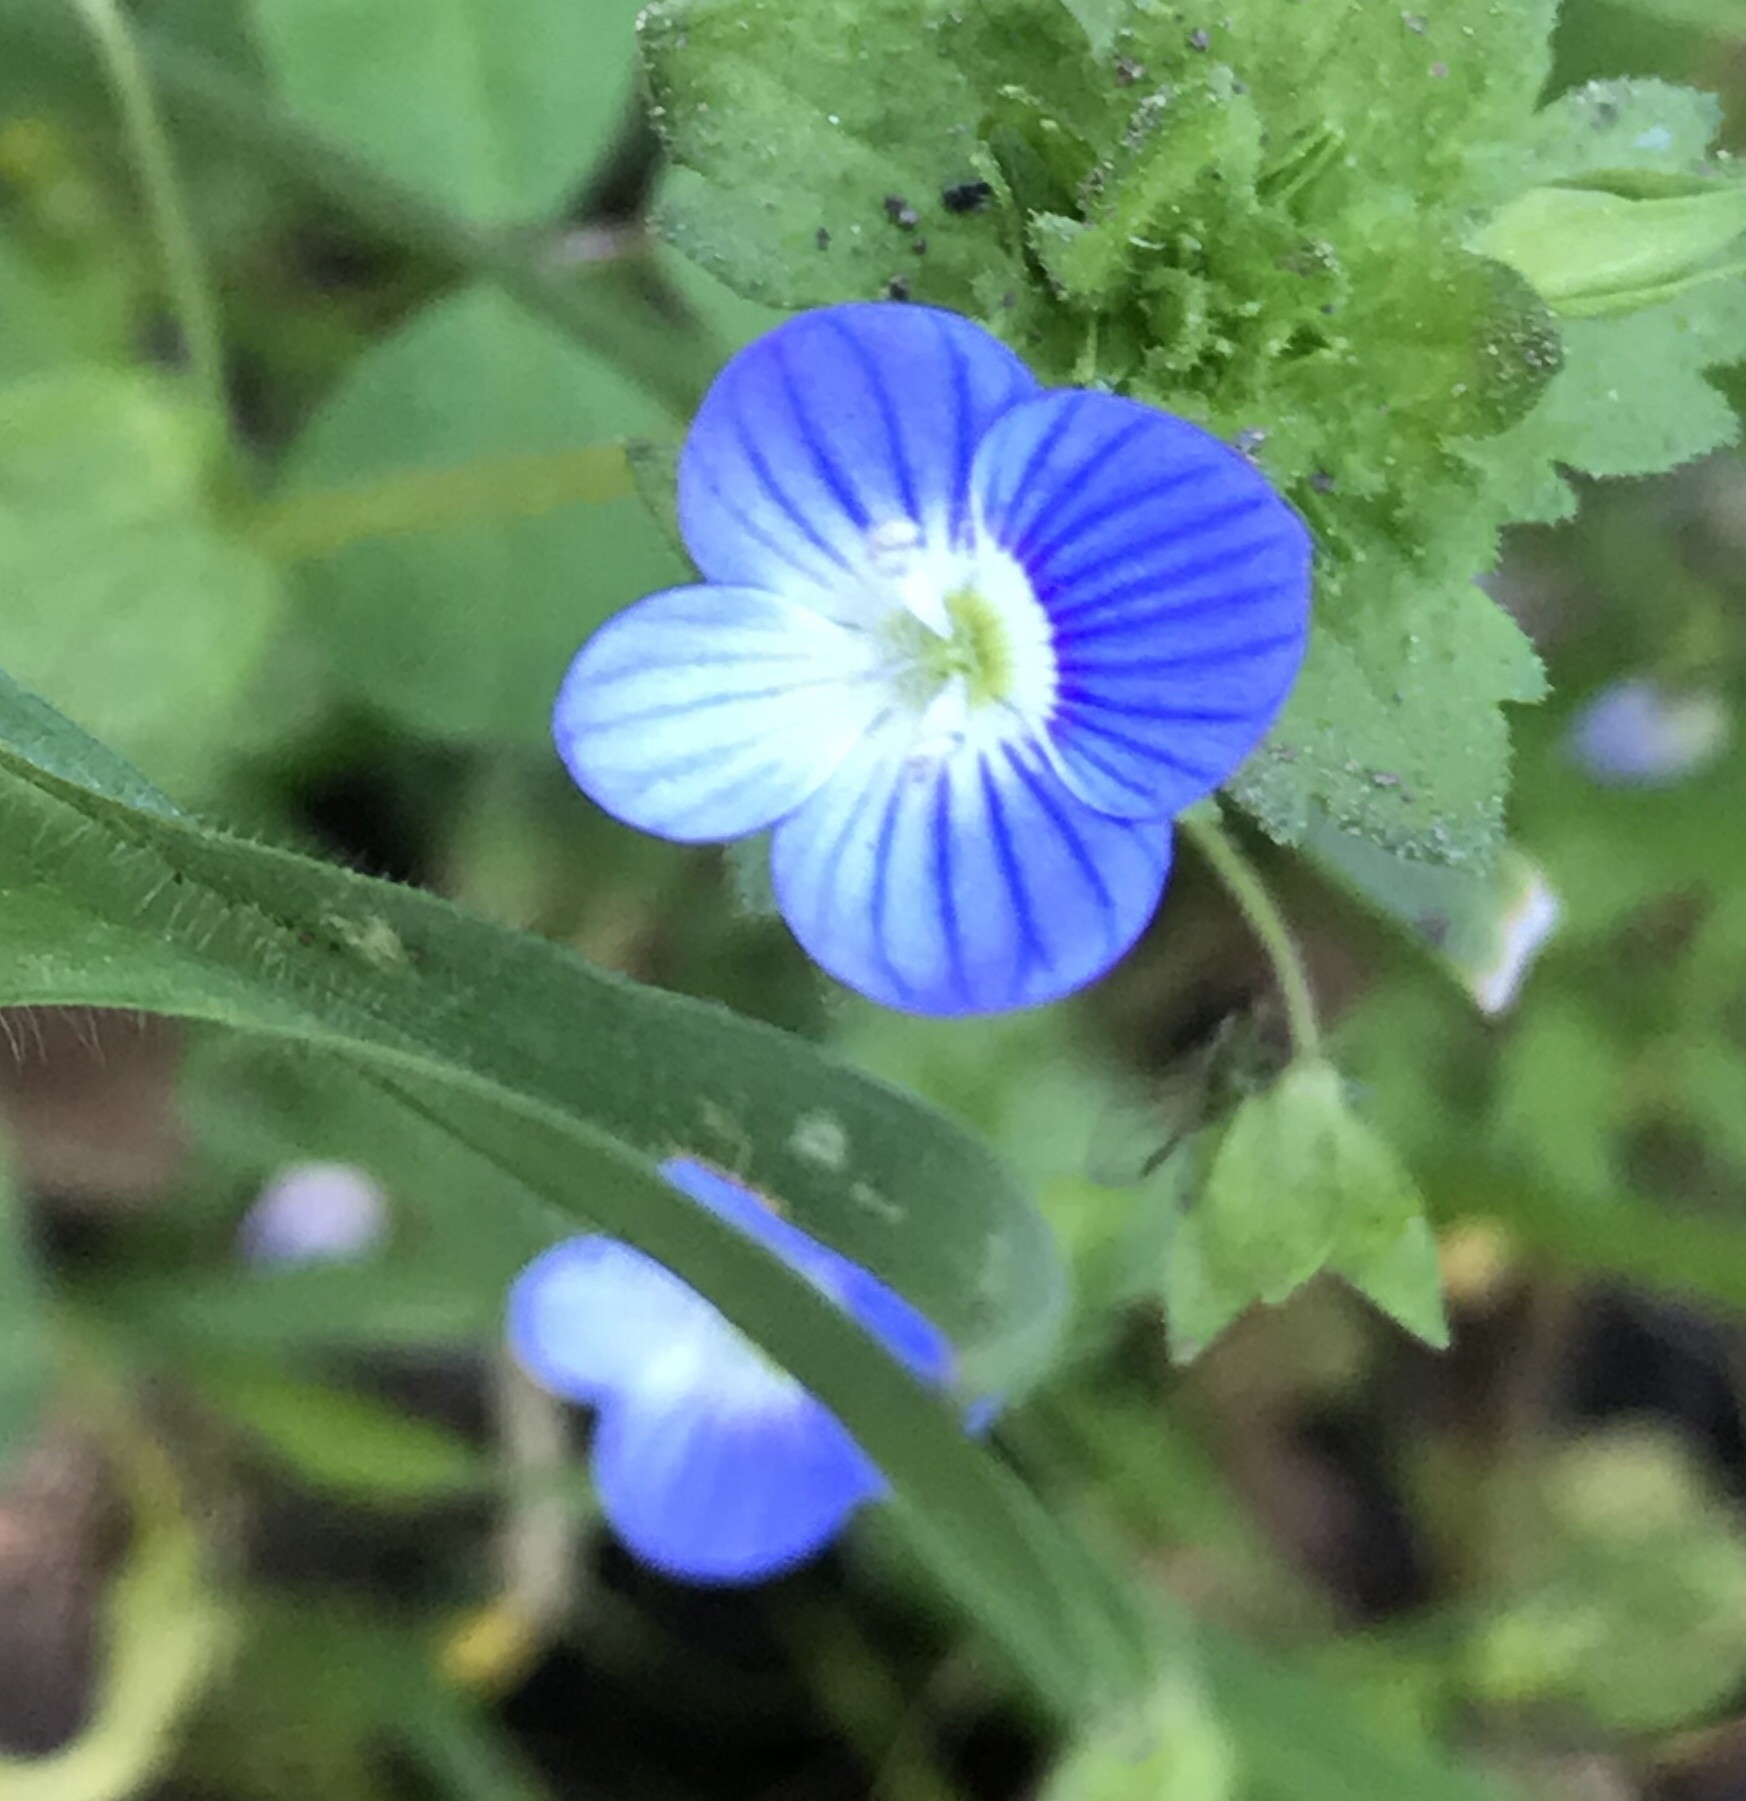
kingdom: Plantae
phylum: Tracheophyta
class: Magnoliopsida
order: Lamiales
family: Plantaginaceae
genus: Veronica
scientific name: Veronica persica
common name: Common field-speedwell
